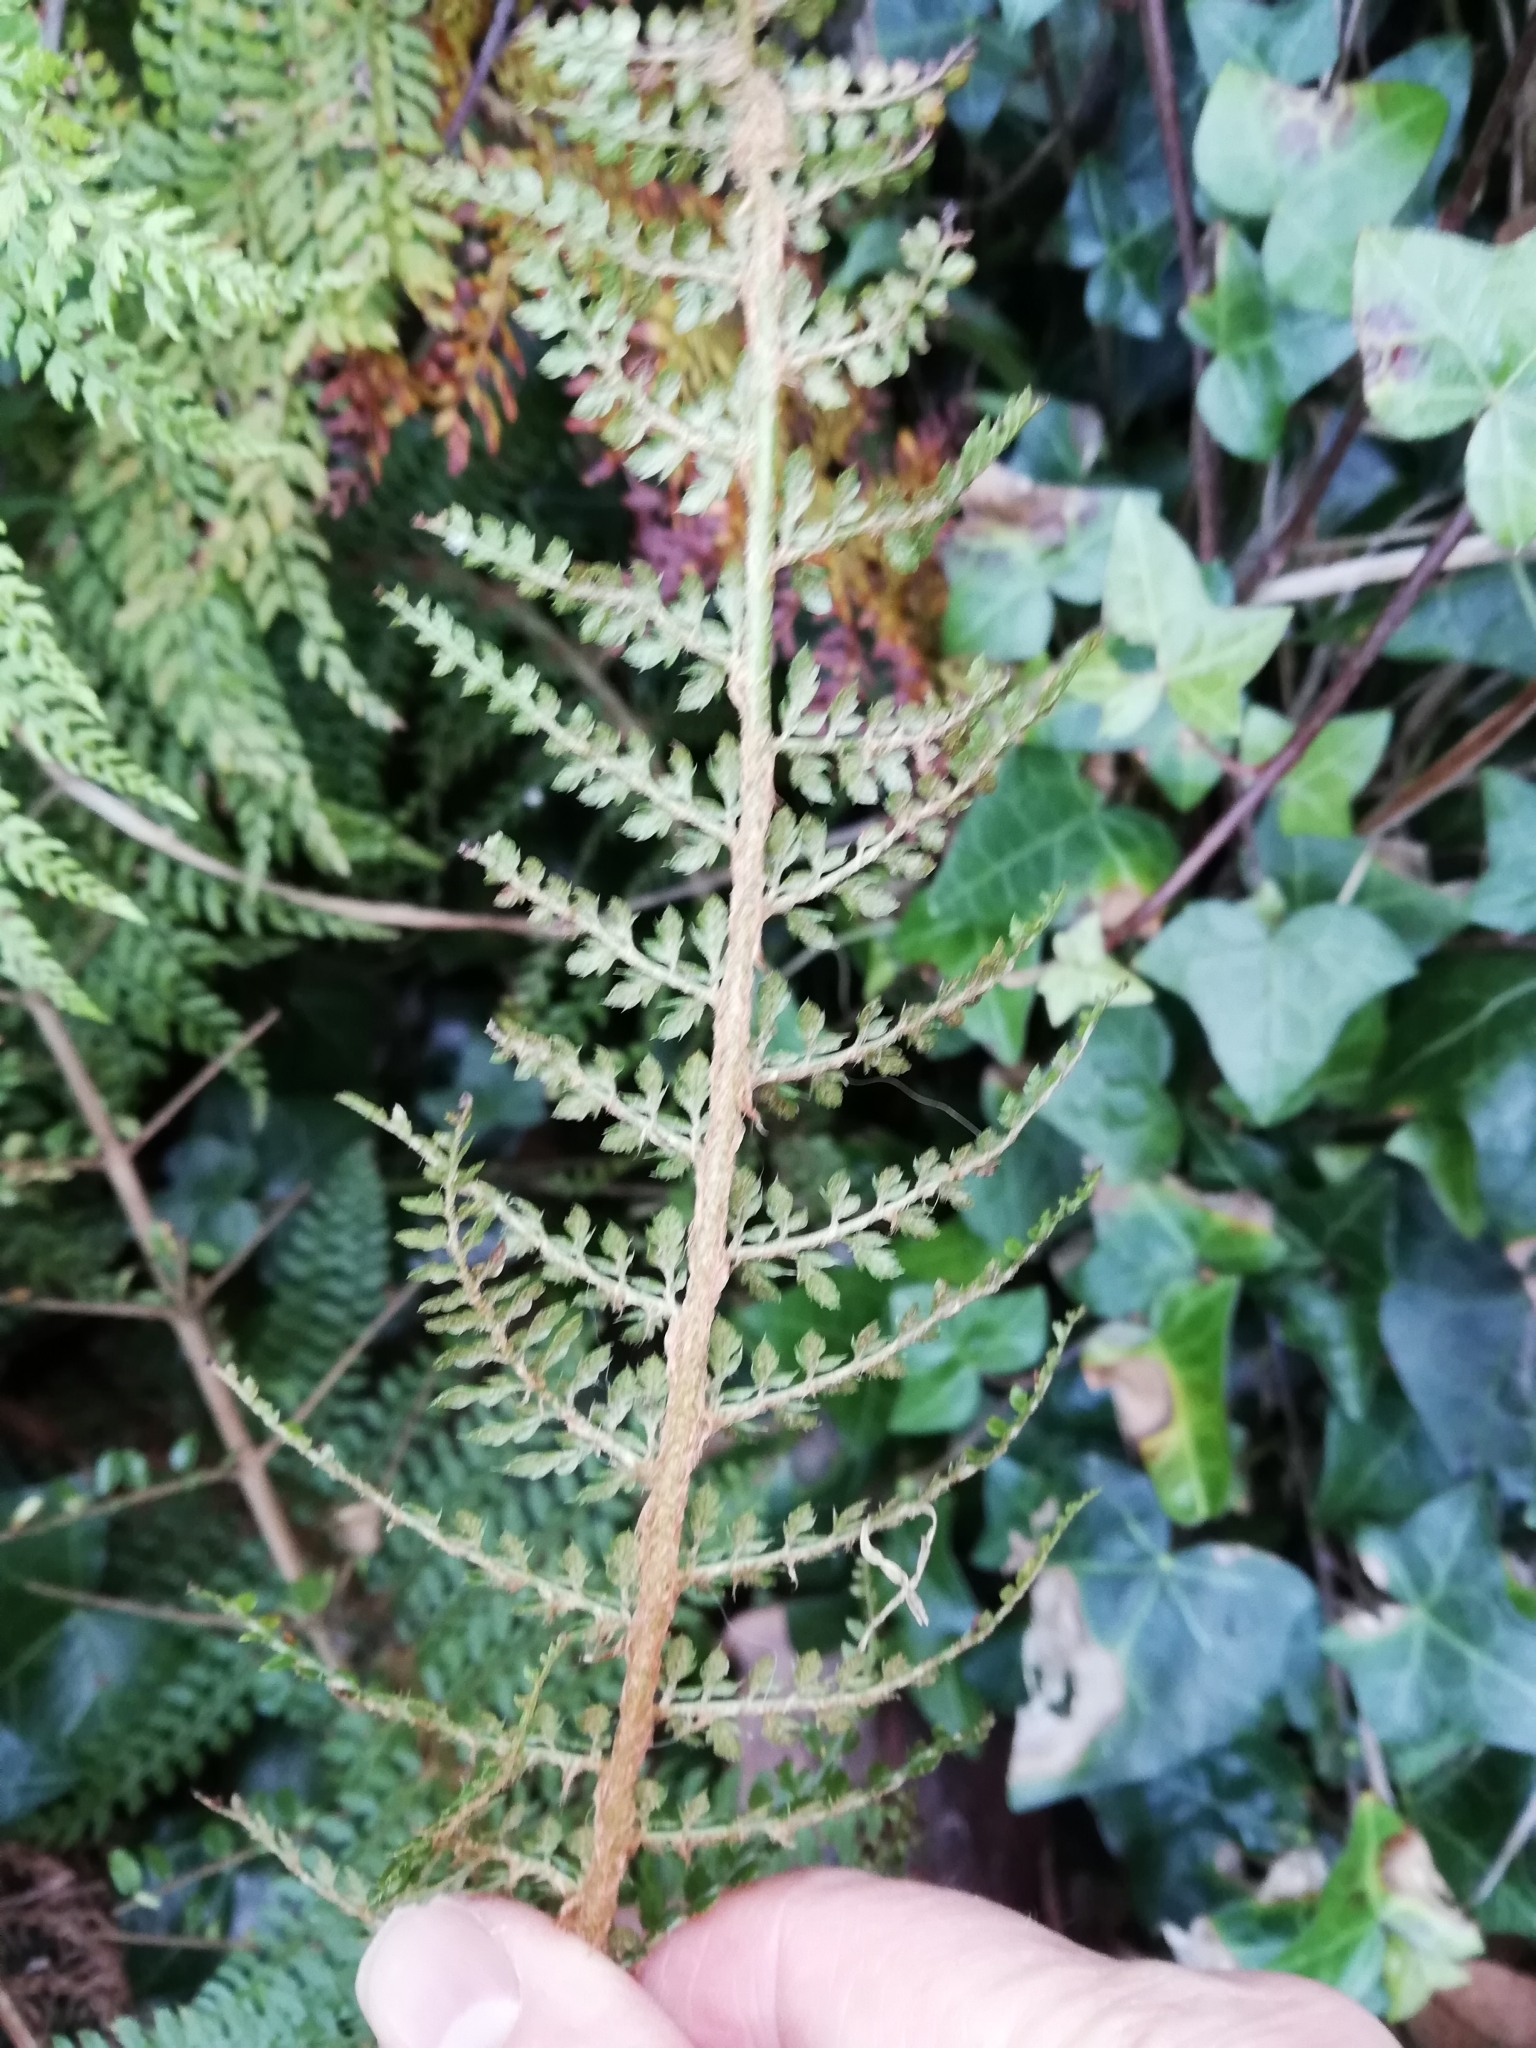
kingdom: Plantae
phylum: Tracheophyta
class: Polypodiopsida
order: Polypodiales
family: Dryopteridaceae
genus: Polystichum
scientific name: Polystichum setiferum
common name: Soft shield-fern
